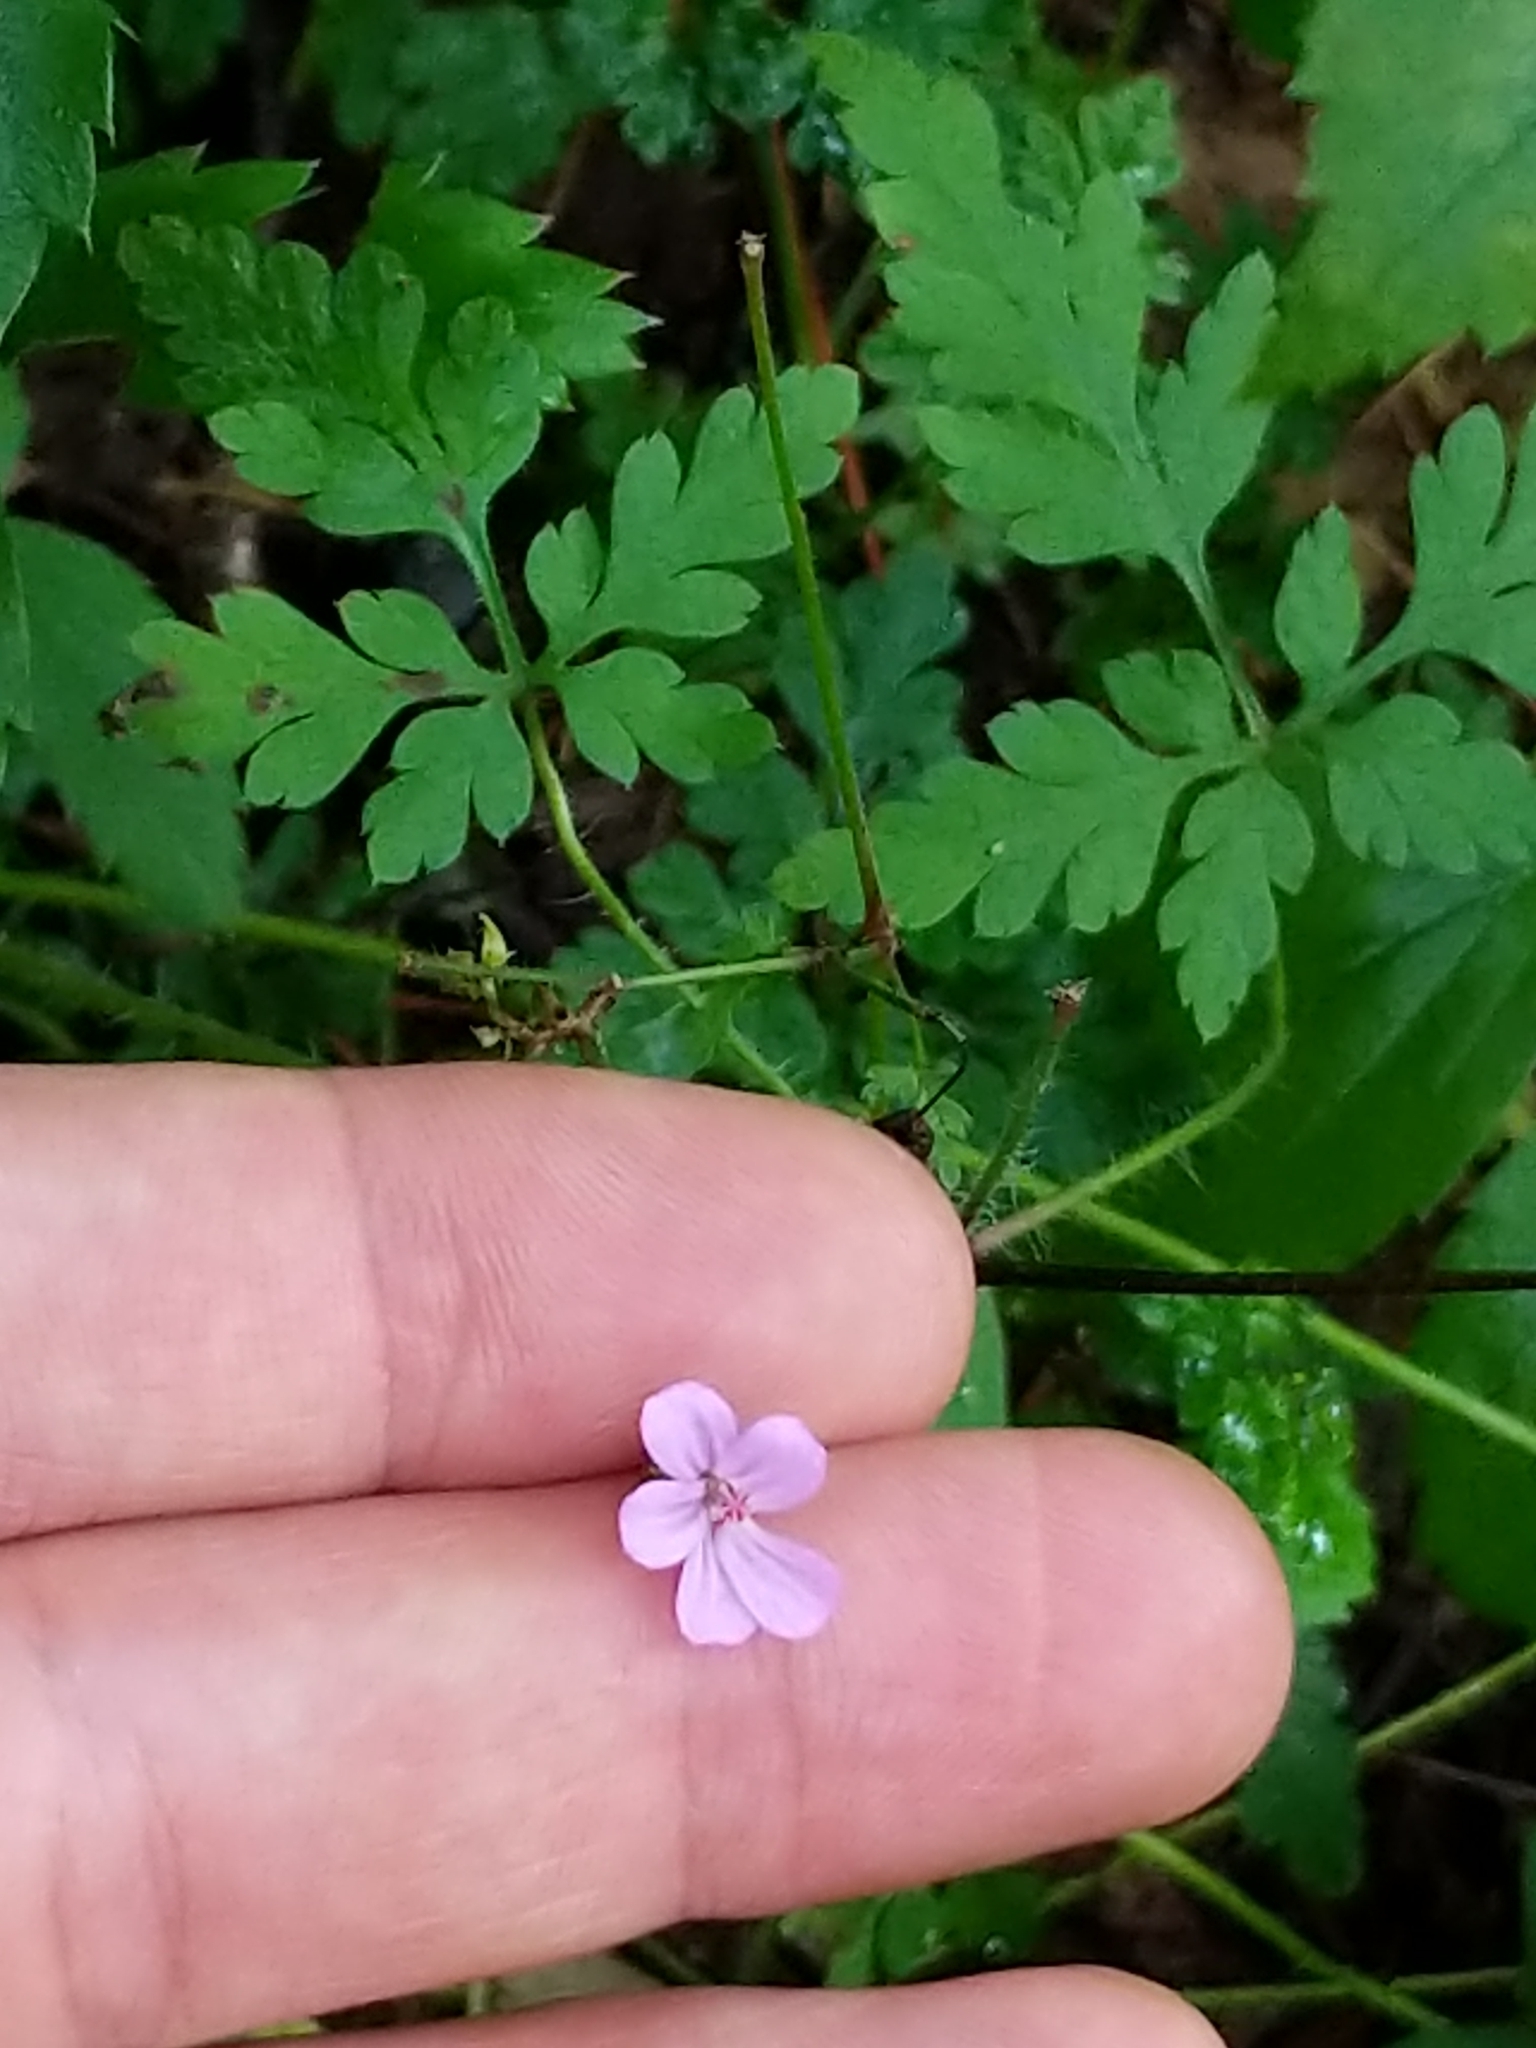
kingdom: Plantae
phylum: Tracheophyta
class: Magnoliopsida
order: Geraniales
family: Geraniaceae
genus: Geranium
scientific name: Geranium robertianum
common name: Herb-robert
